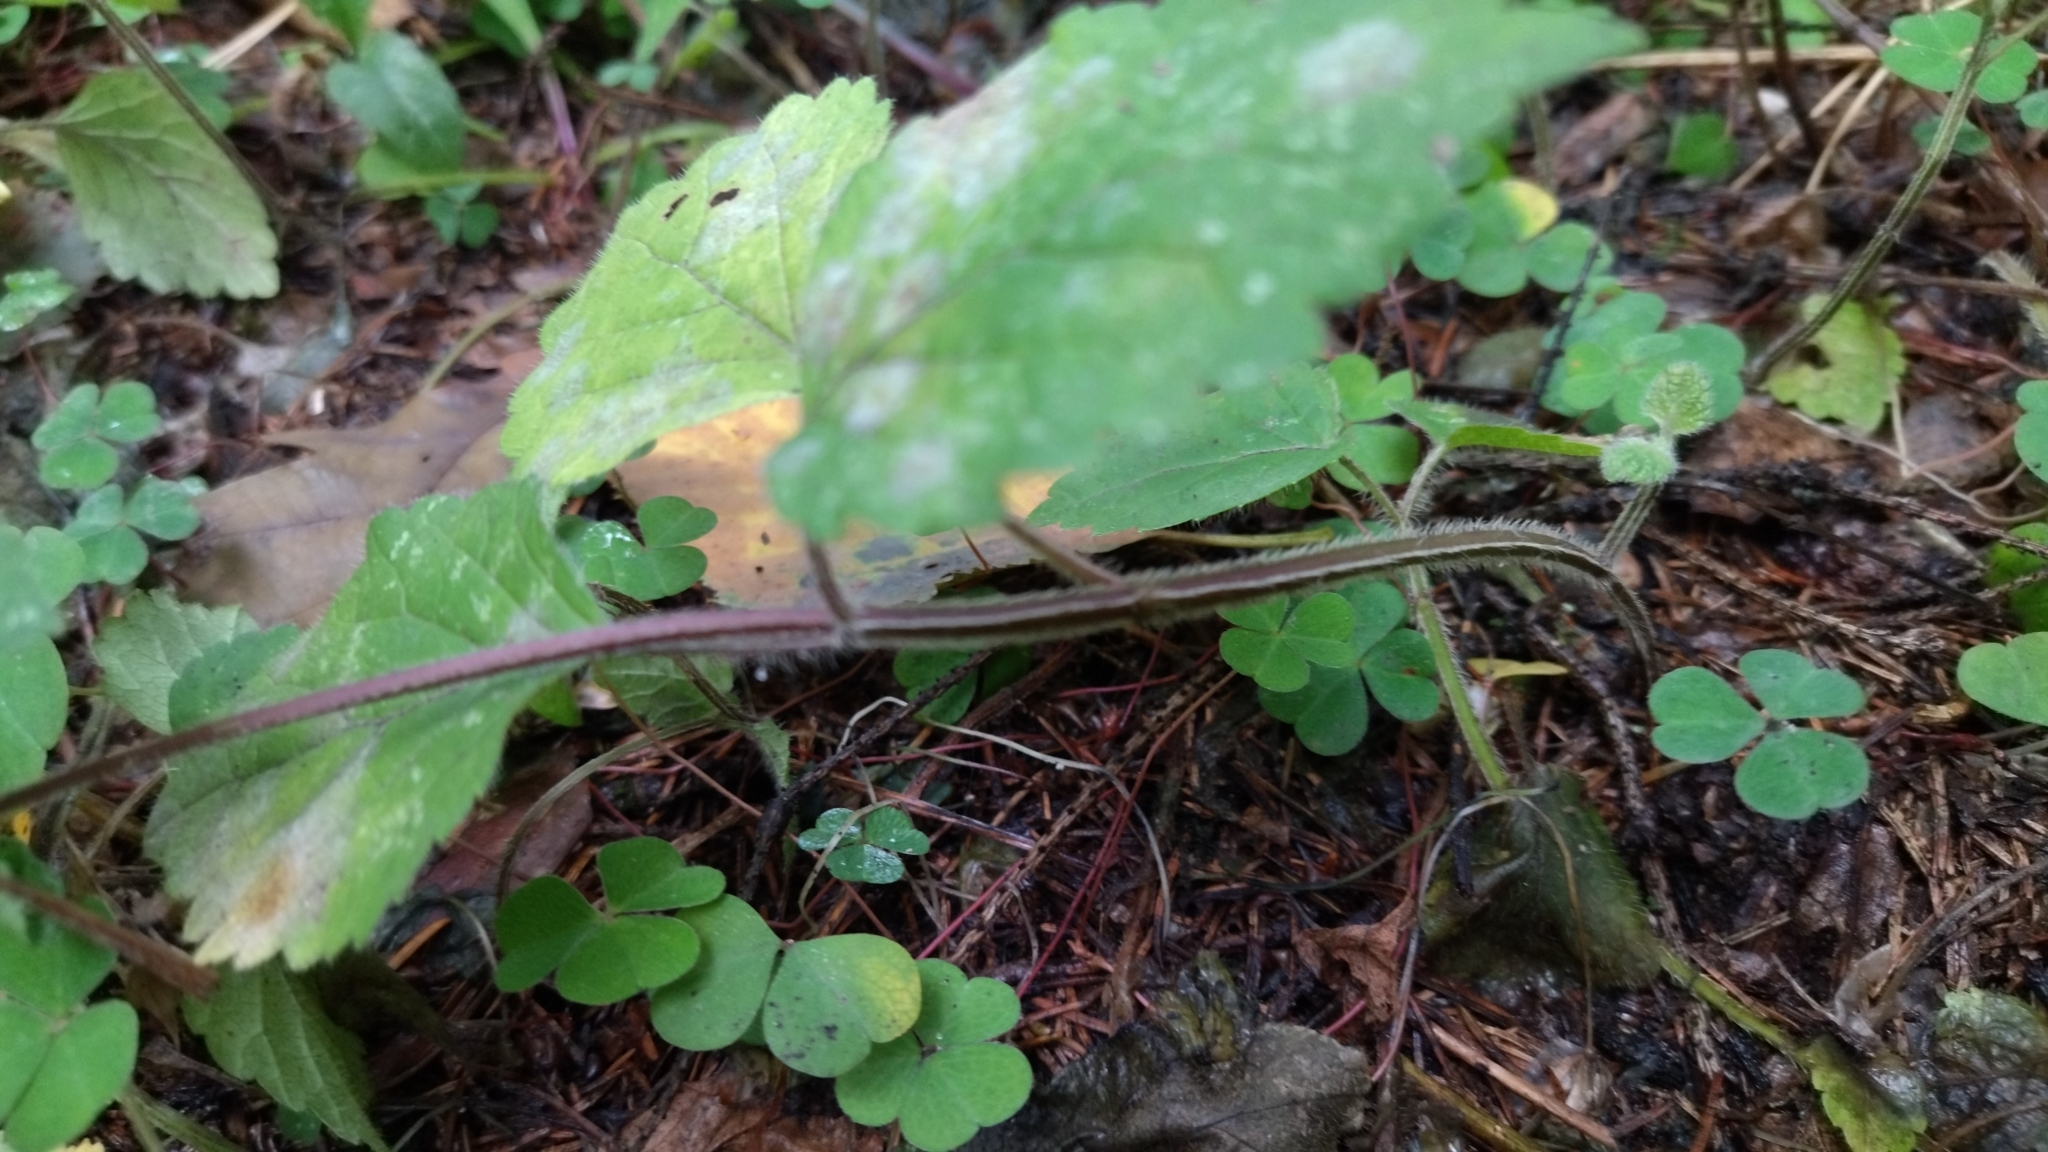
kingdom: Plantae
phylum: Tracheophyta
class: Magnoliopsida
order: Lamiales
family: Lamiaceae
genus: Lamium
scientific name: Lamium galeobdolon
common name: Yellow archangel
